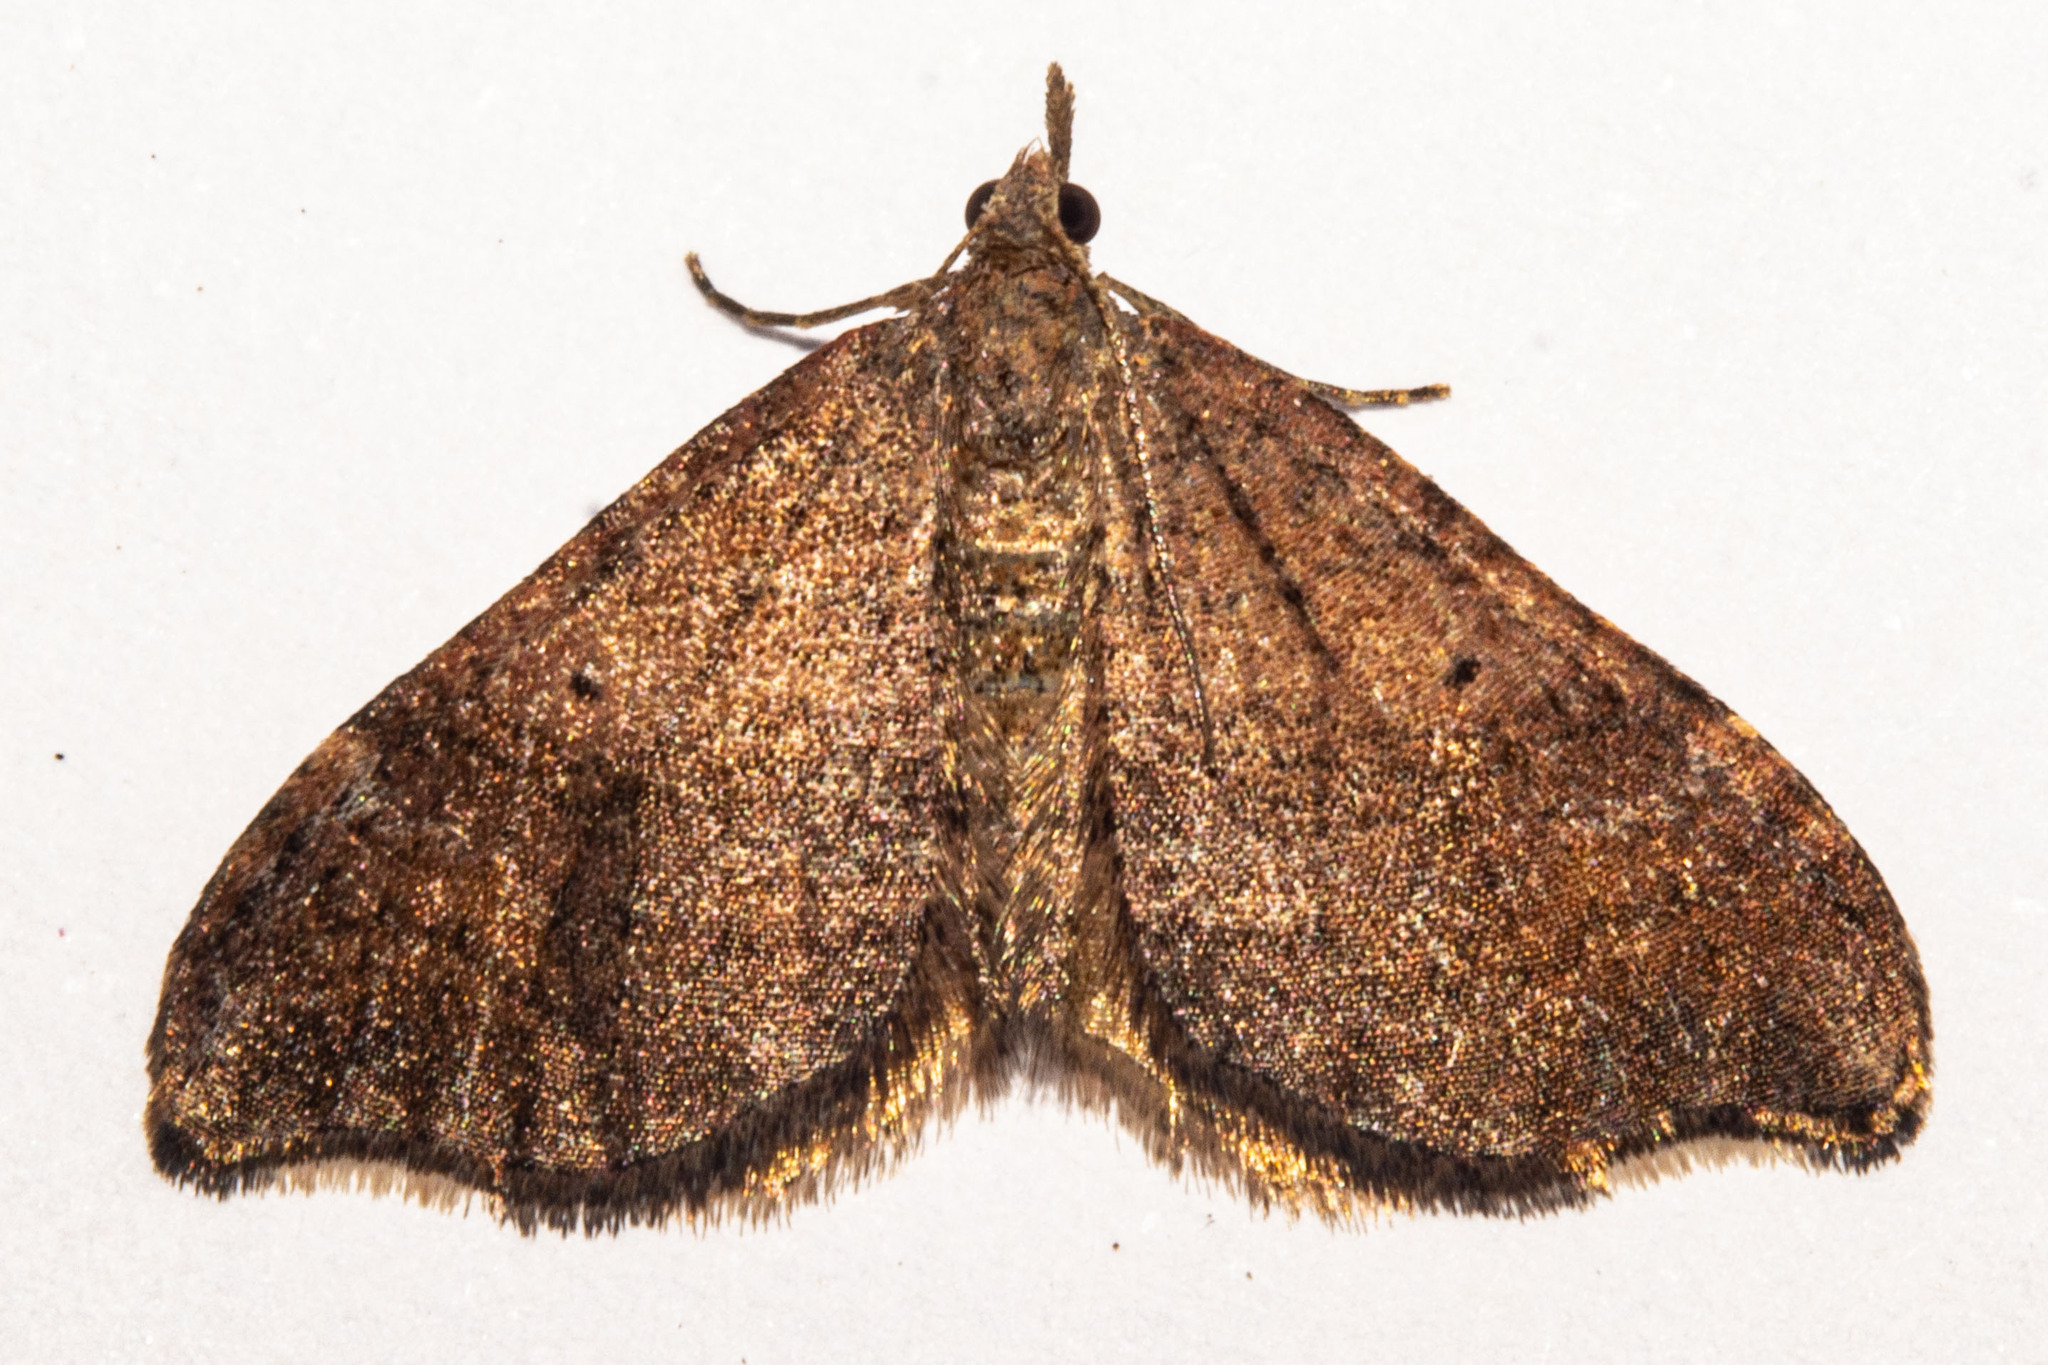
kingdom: Animalia
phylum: Arthropoda
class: Insecta
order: Lepidoptera
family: Geometridae
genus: Homodotis
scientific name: Homodotis megaspilata
